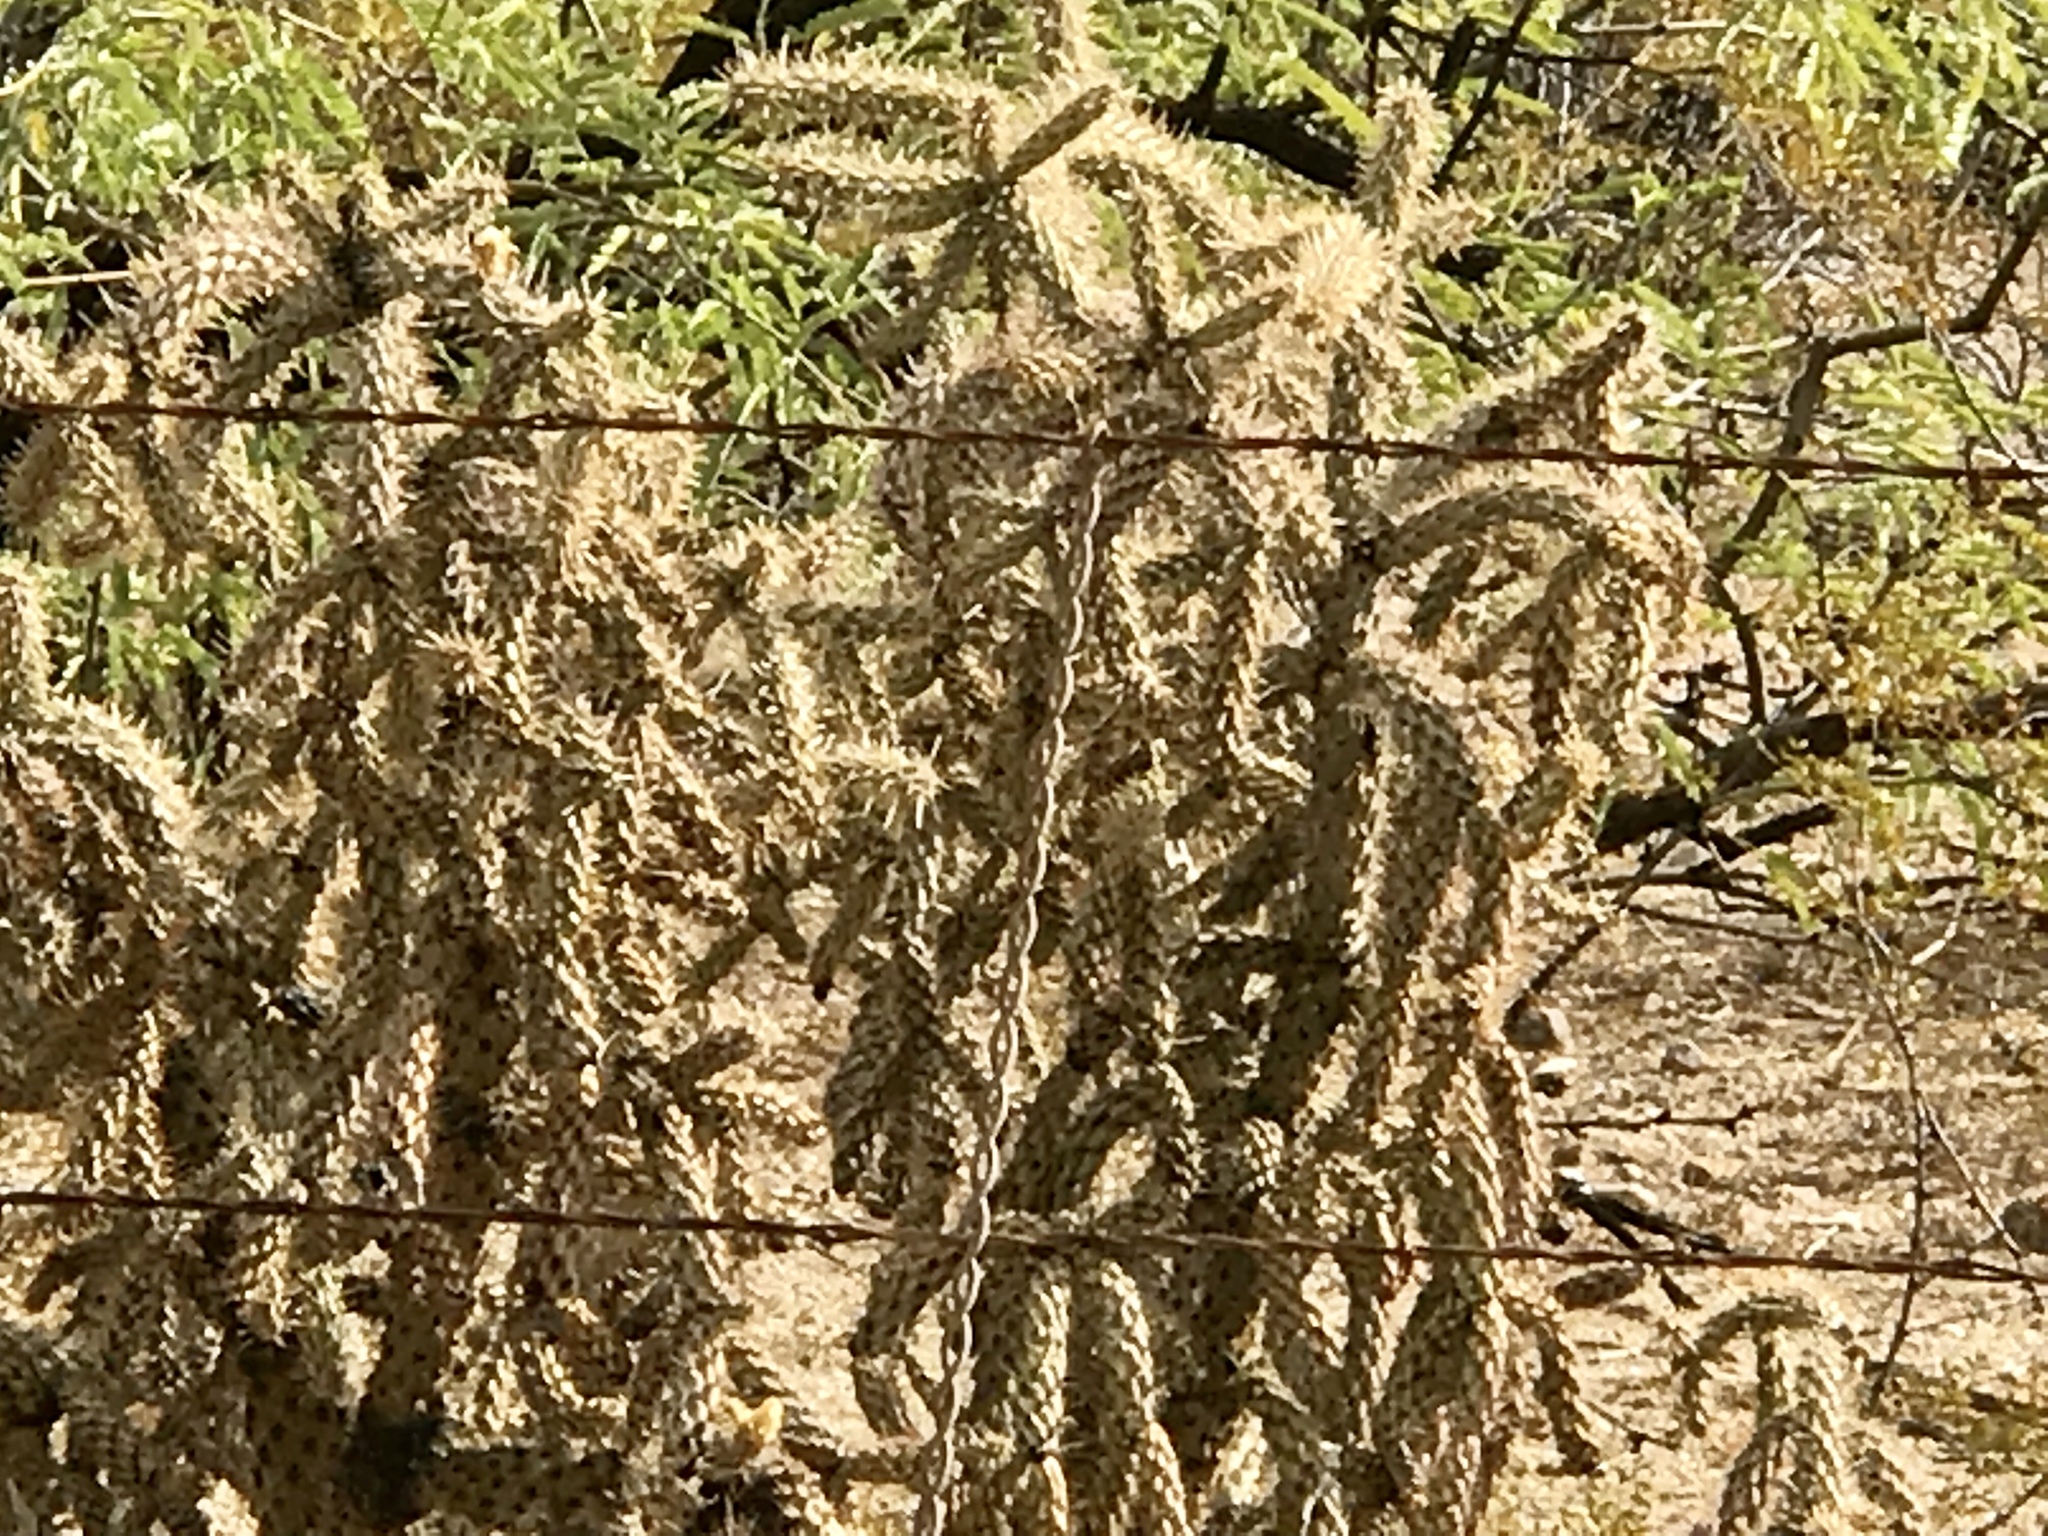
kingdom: Plantae
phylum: Tracheophyta
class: Magnoliopsida
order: Caryophyllales
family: Cactaceae
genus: Cylindropuntia
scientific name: Cylindropuntia imbricata
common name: Candelabrum cactus
